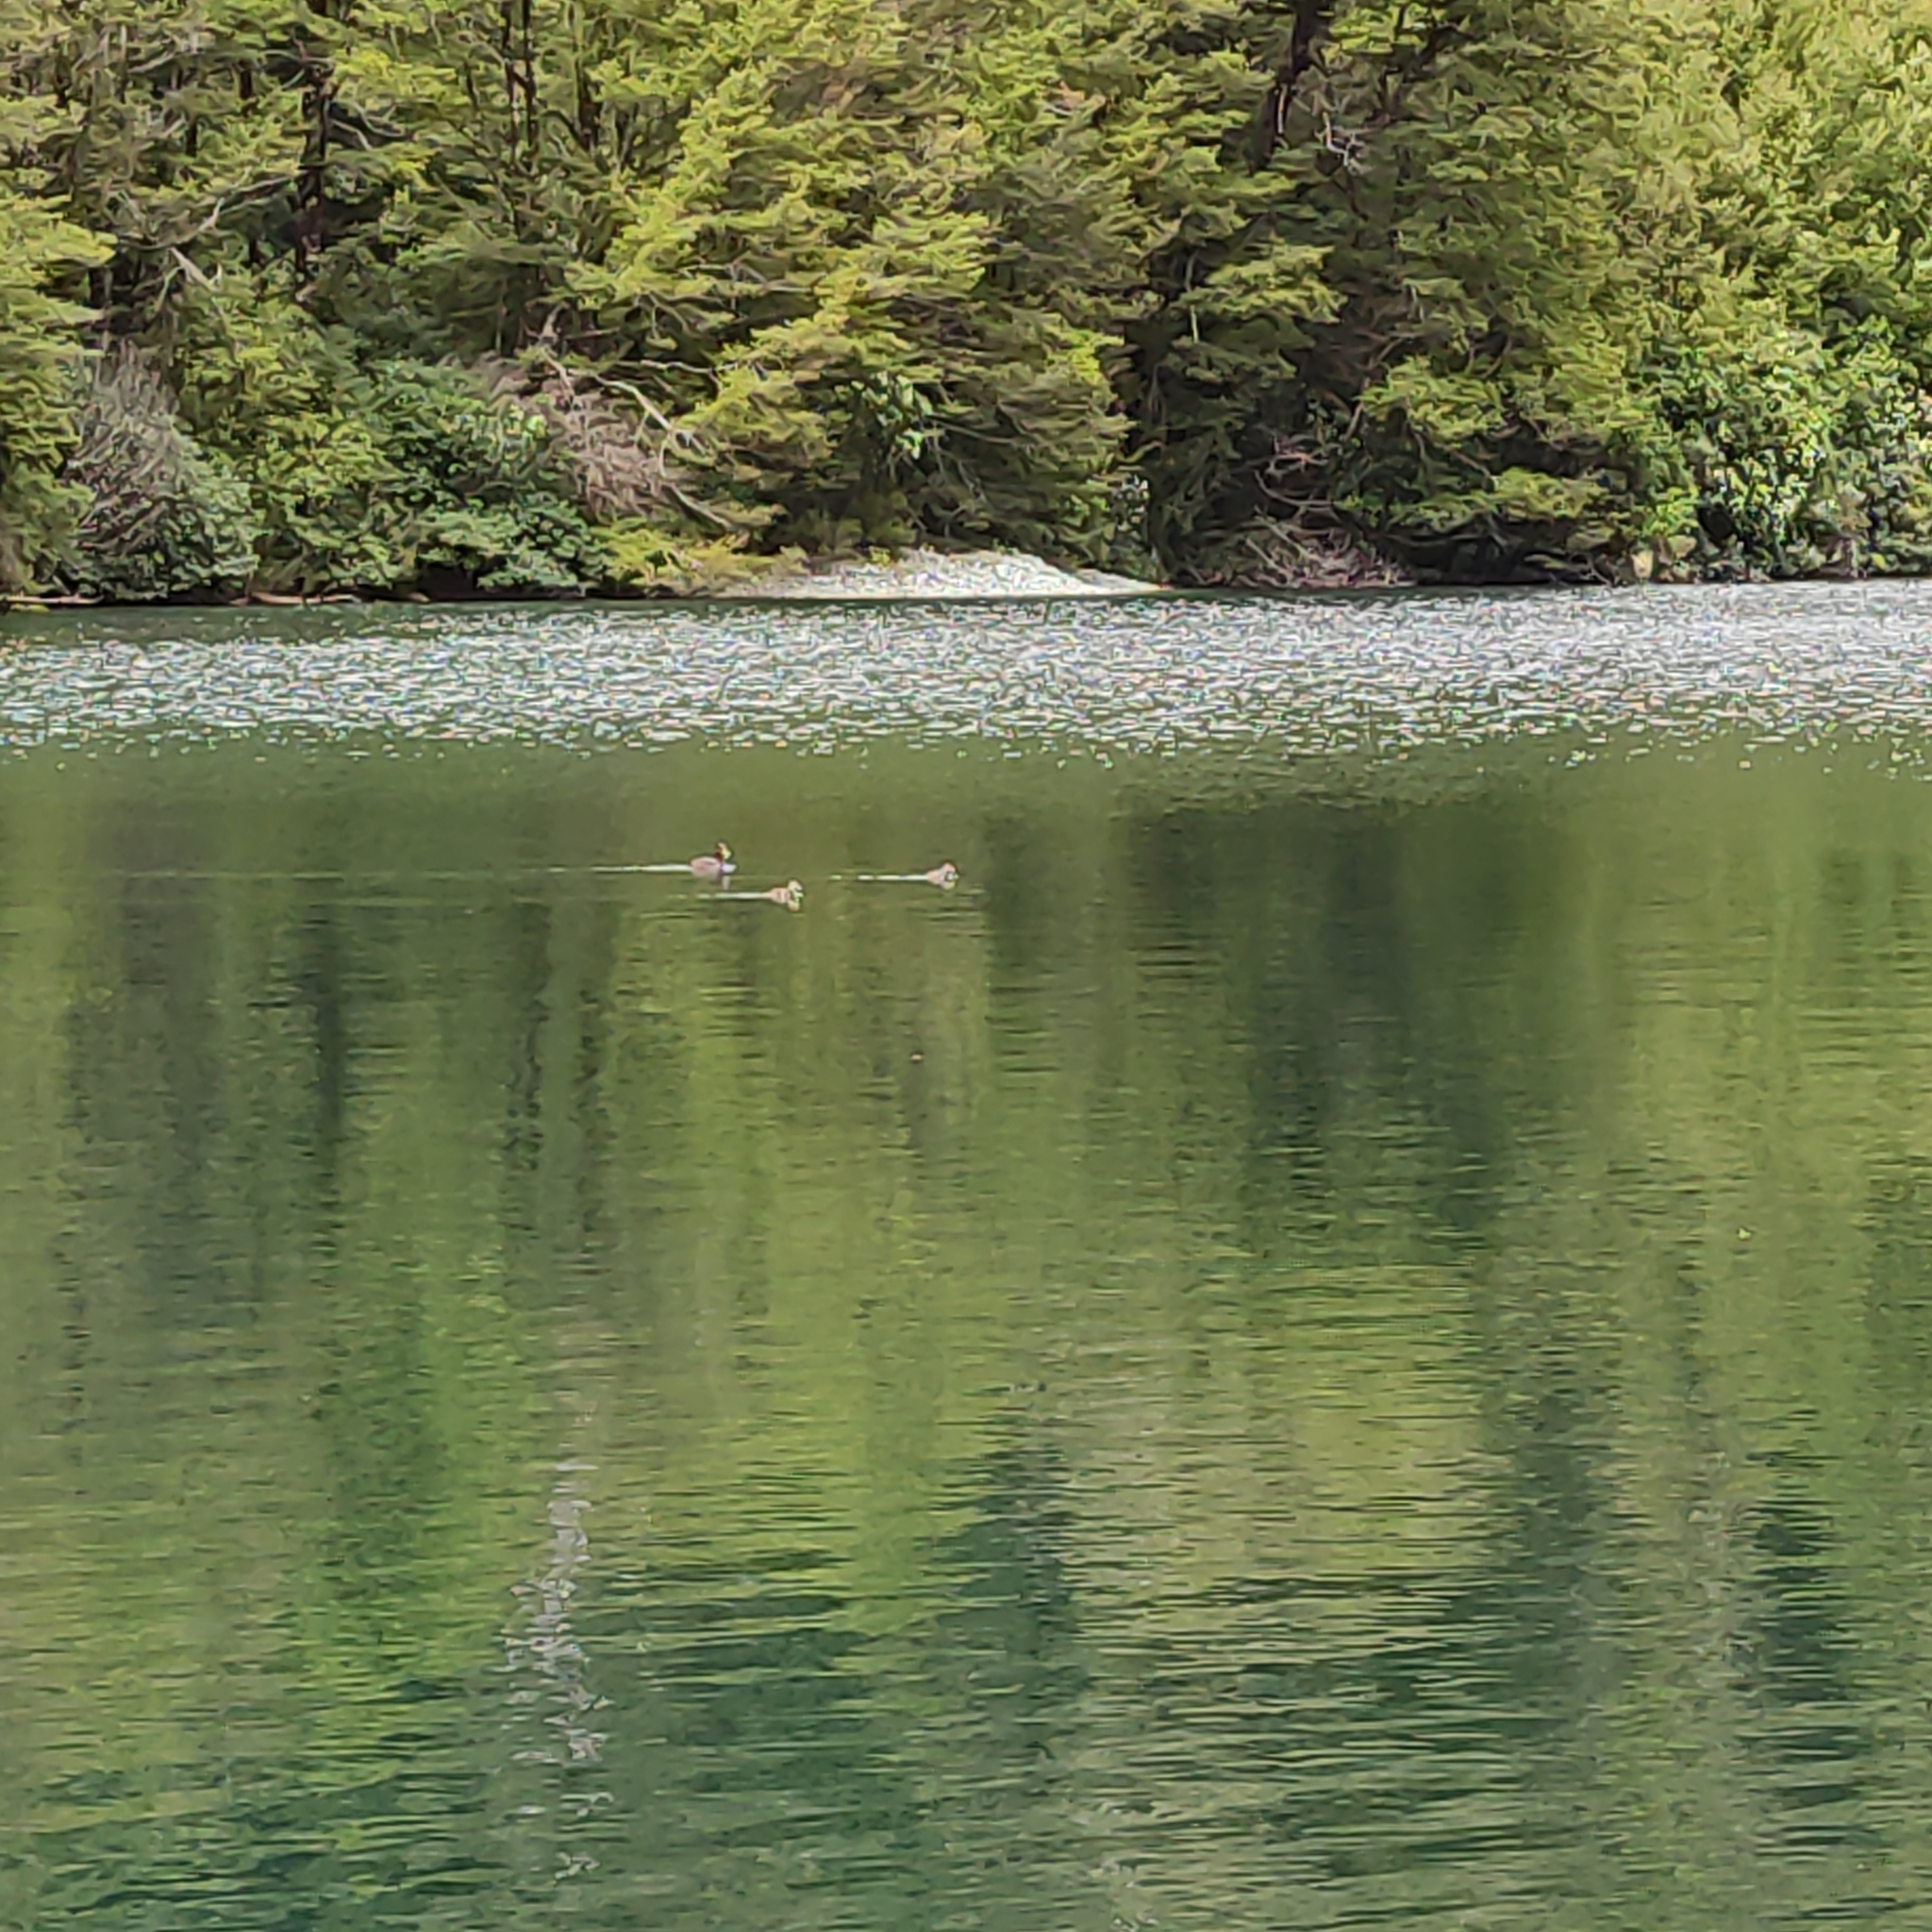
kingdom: Animalia
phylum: Chordata
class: Aves
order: Anseriformes
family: Anatidae
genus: Aythya
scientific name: Aythya novaeseelandiae
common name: New zealand scaup
